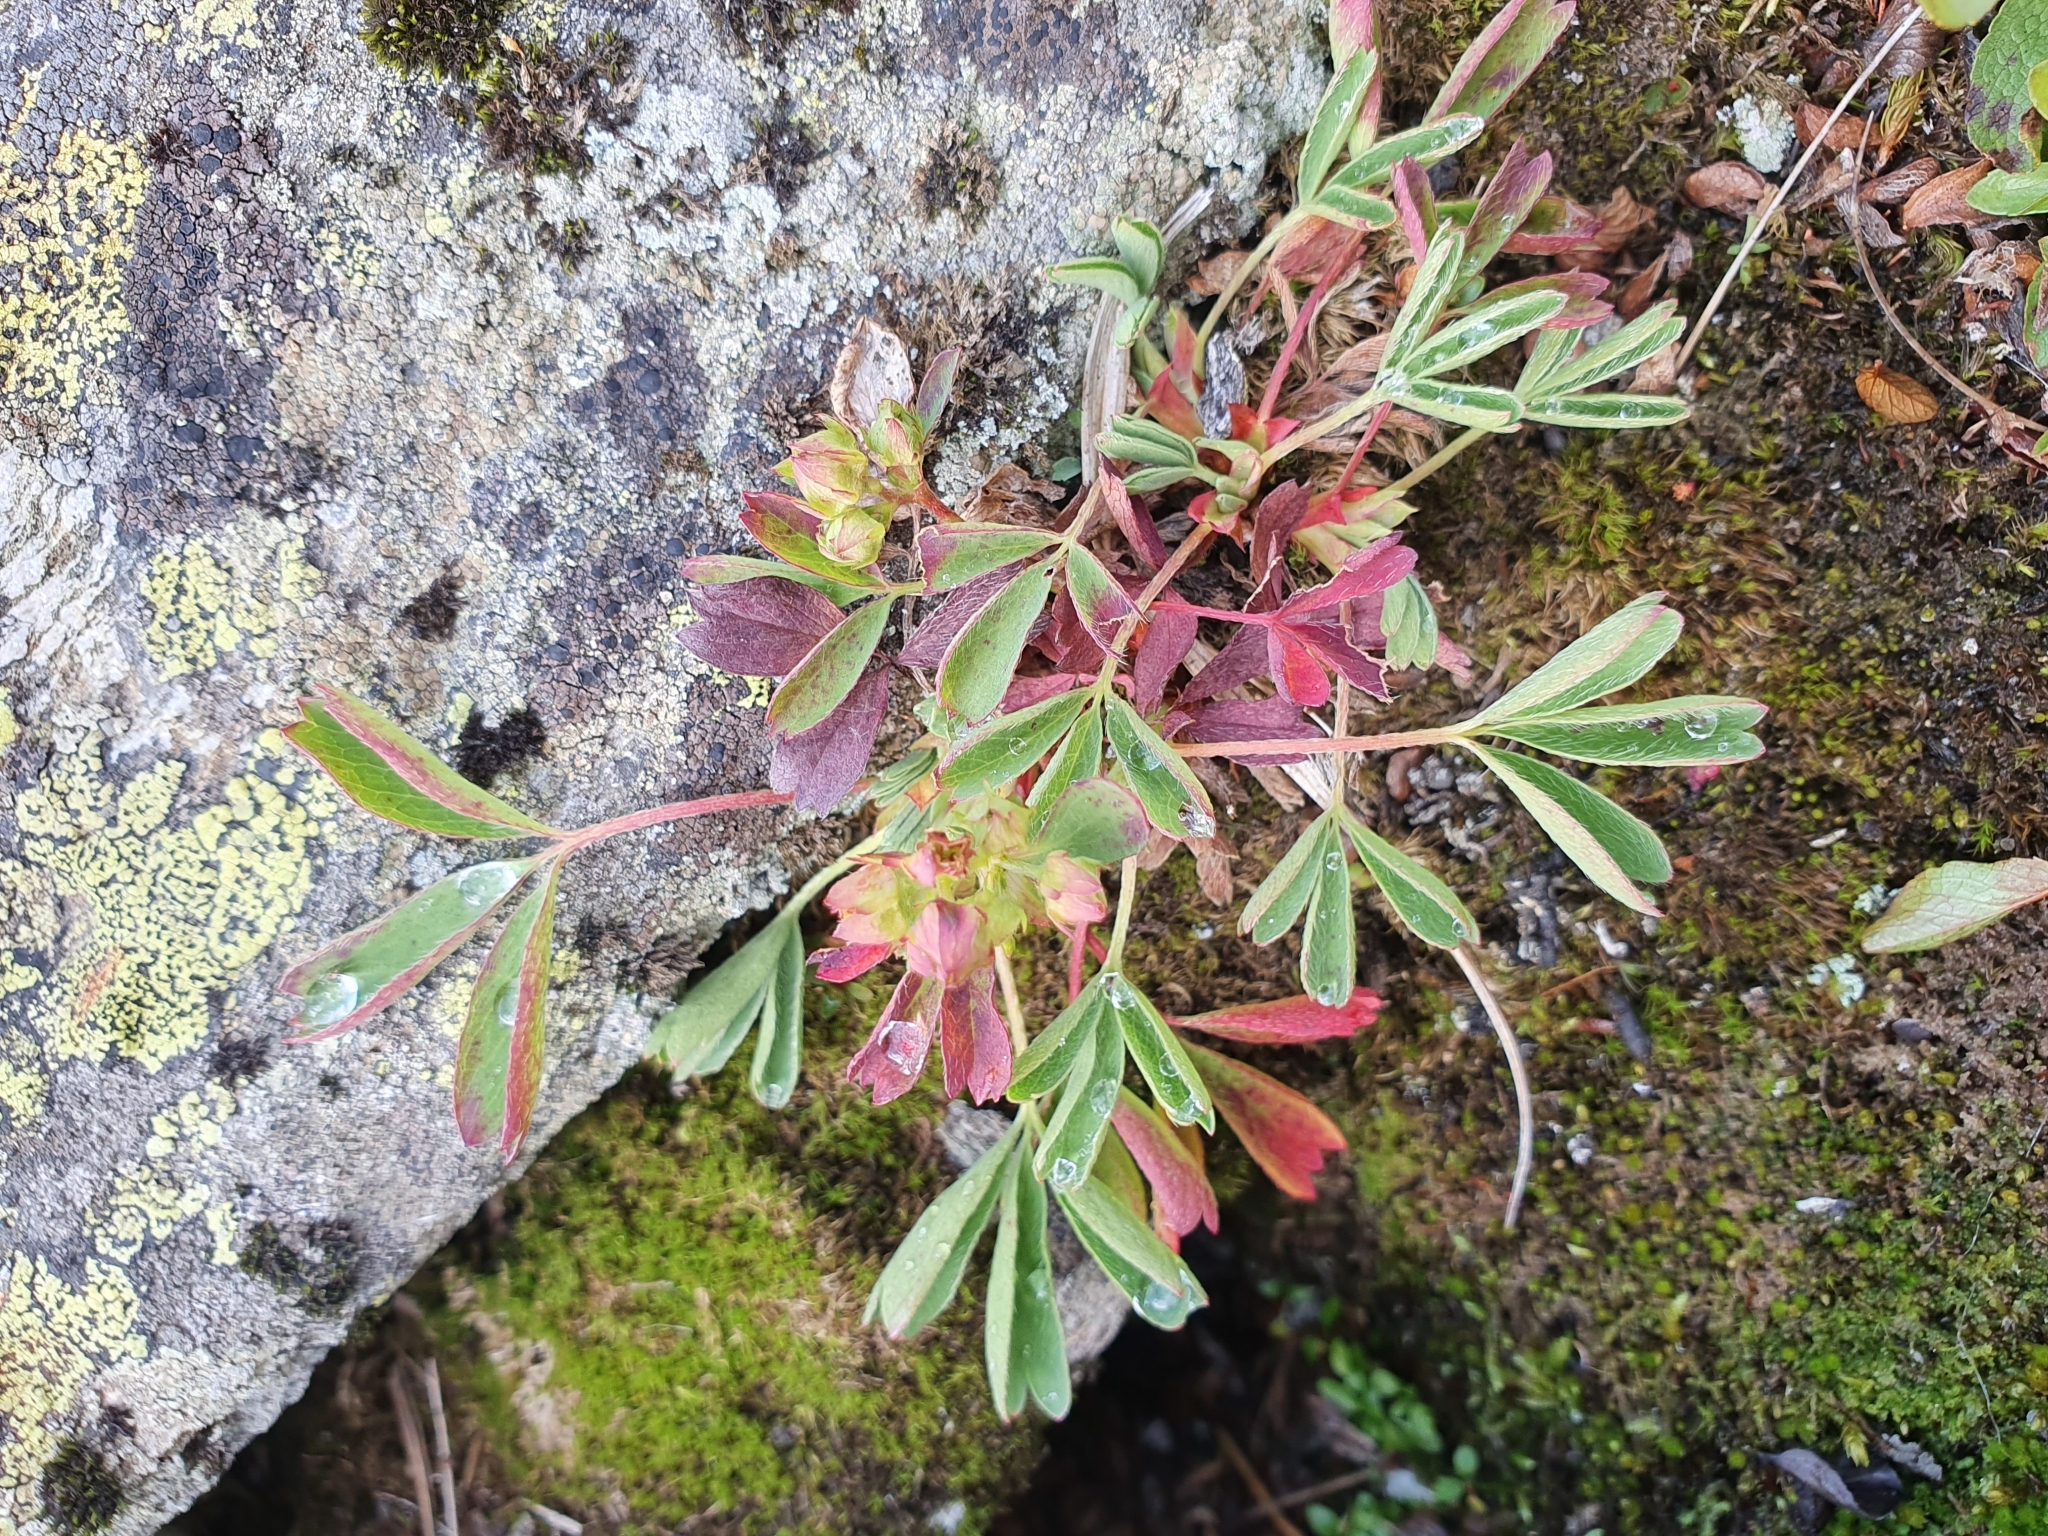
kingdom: Plantae
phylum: Tracheophyta
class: Magnoliopsida
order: Rosales
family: Rosaceae
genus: Sibbaldia
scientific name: Sibbaldia procumbens
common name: Creeping sibbaldia
